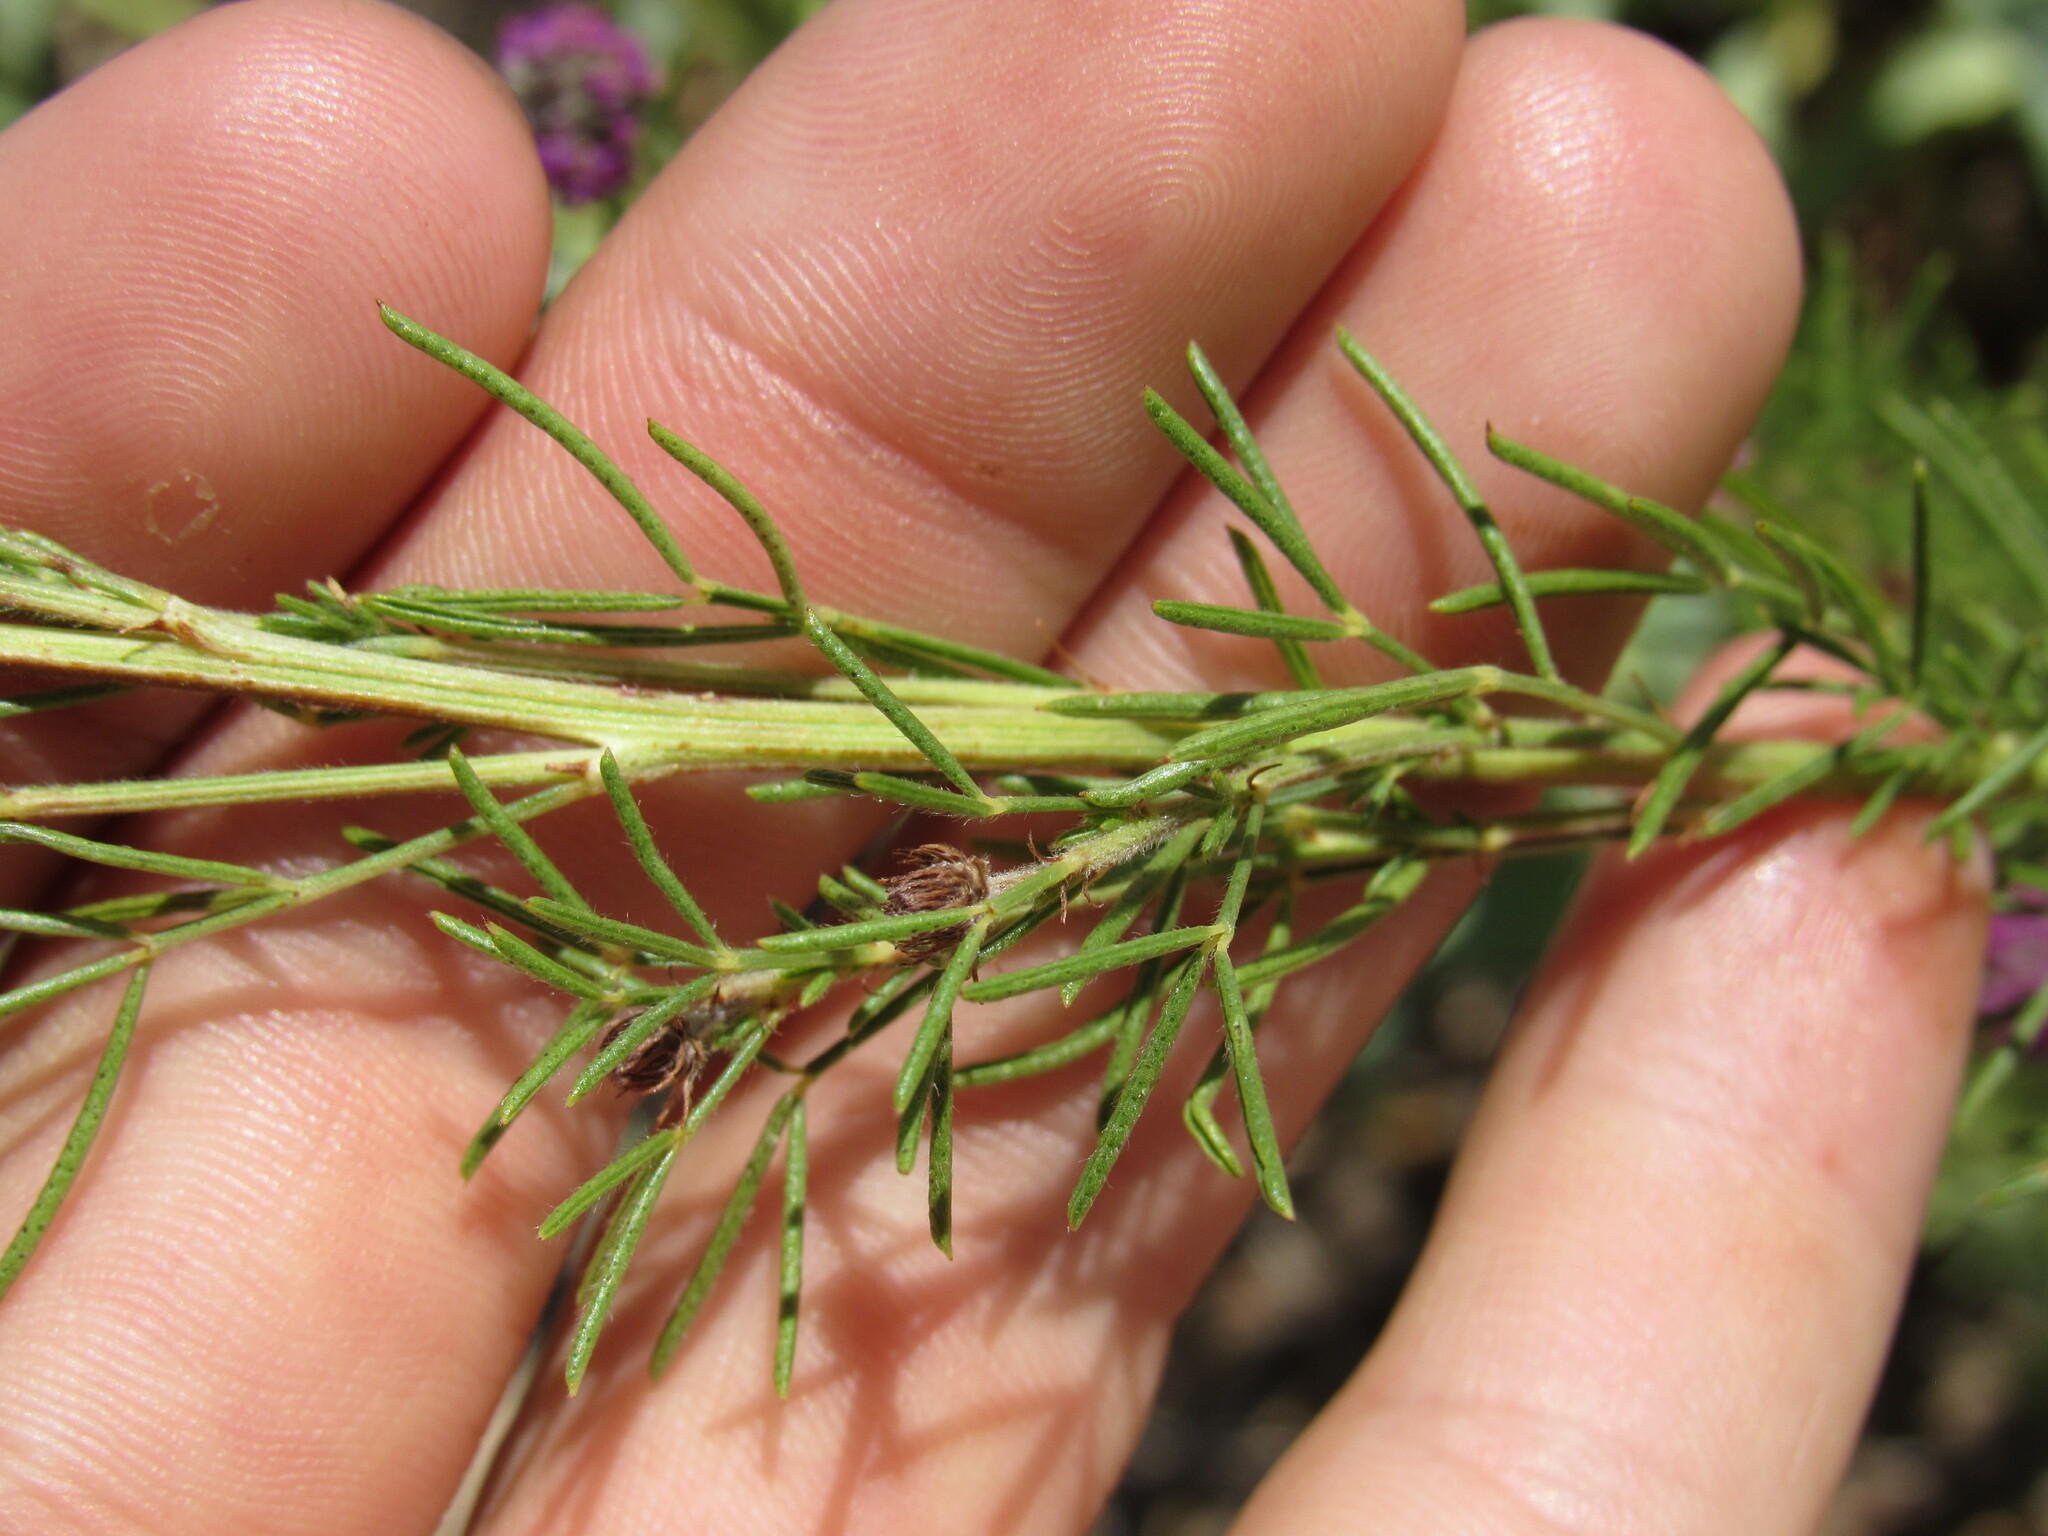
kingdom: Plantae
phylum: Tracheophyta
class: Magnoliopsida
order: Fabales
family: Fabaceae
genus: Dalea
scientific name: Dalea purpurea
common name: Purple prairie-clover
